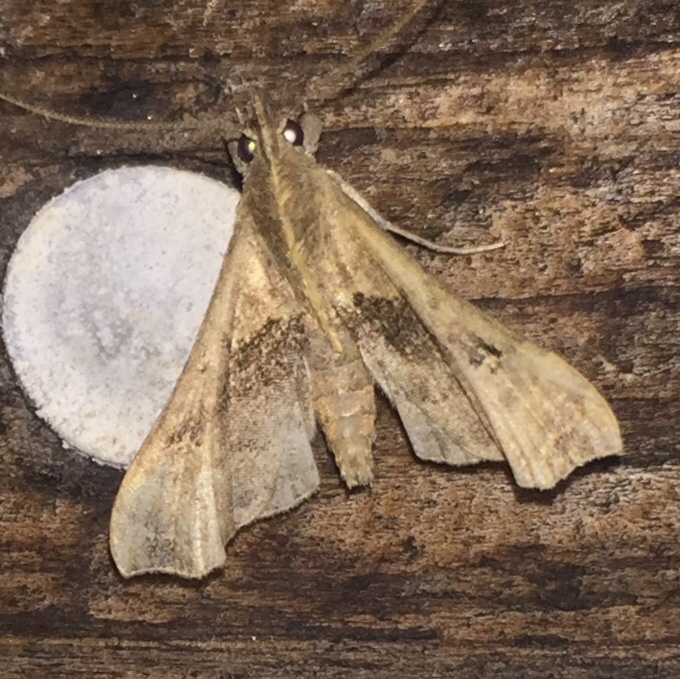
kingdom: Animalia
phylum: Arthropoda
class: Insecta
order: Lepidoptera
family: Erebidae
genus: Palthis
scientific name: Palthis asopialis
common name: Faint-spotted palthis moth
